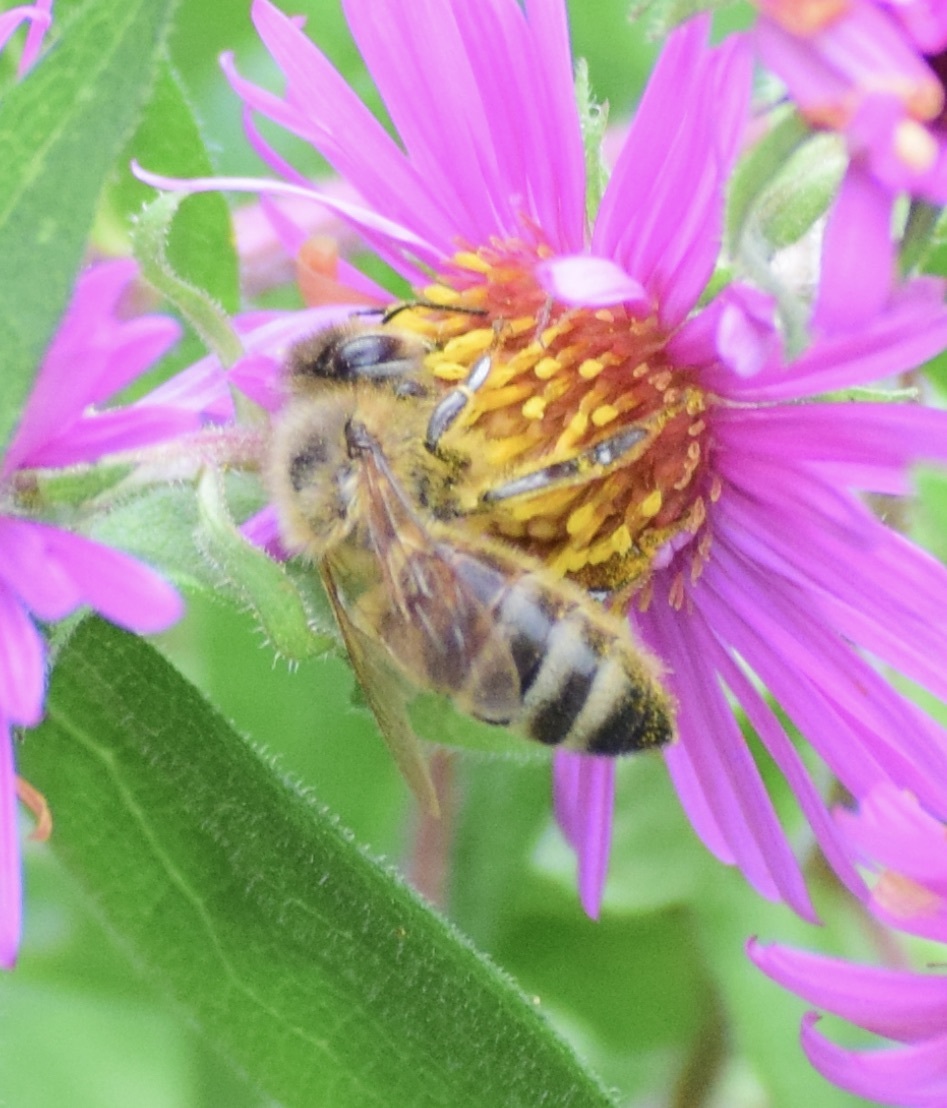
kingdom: Animalia
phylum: Arthropoda
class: Insecta
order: Hymenoptera
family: Apidae
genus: Apis
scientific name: Apis mellifera
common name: Honey bee
